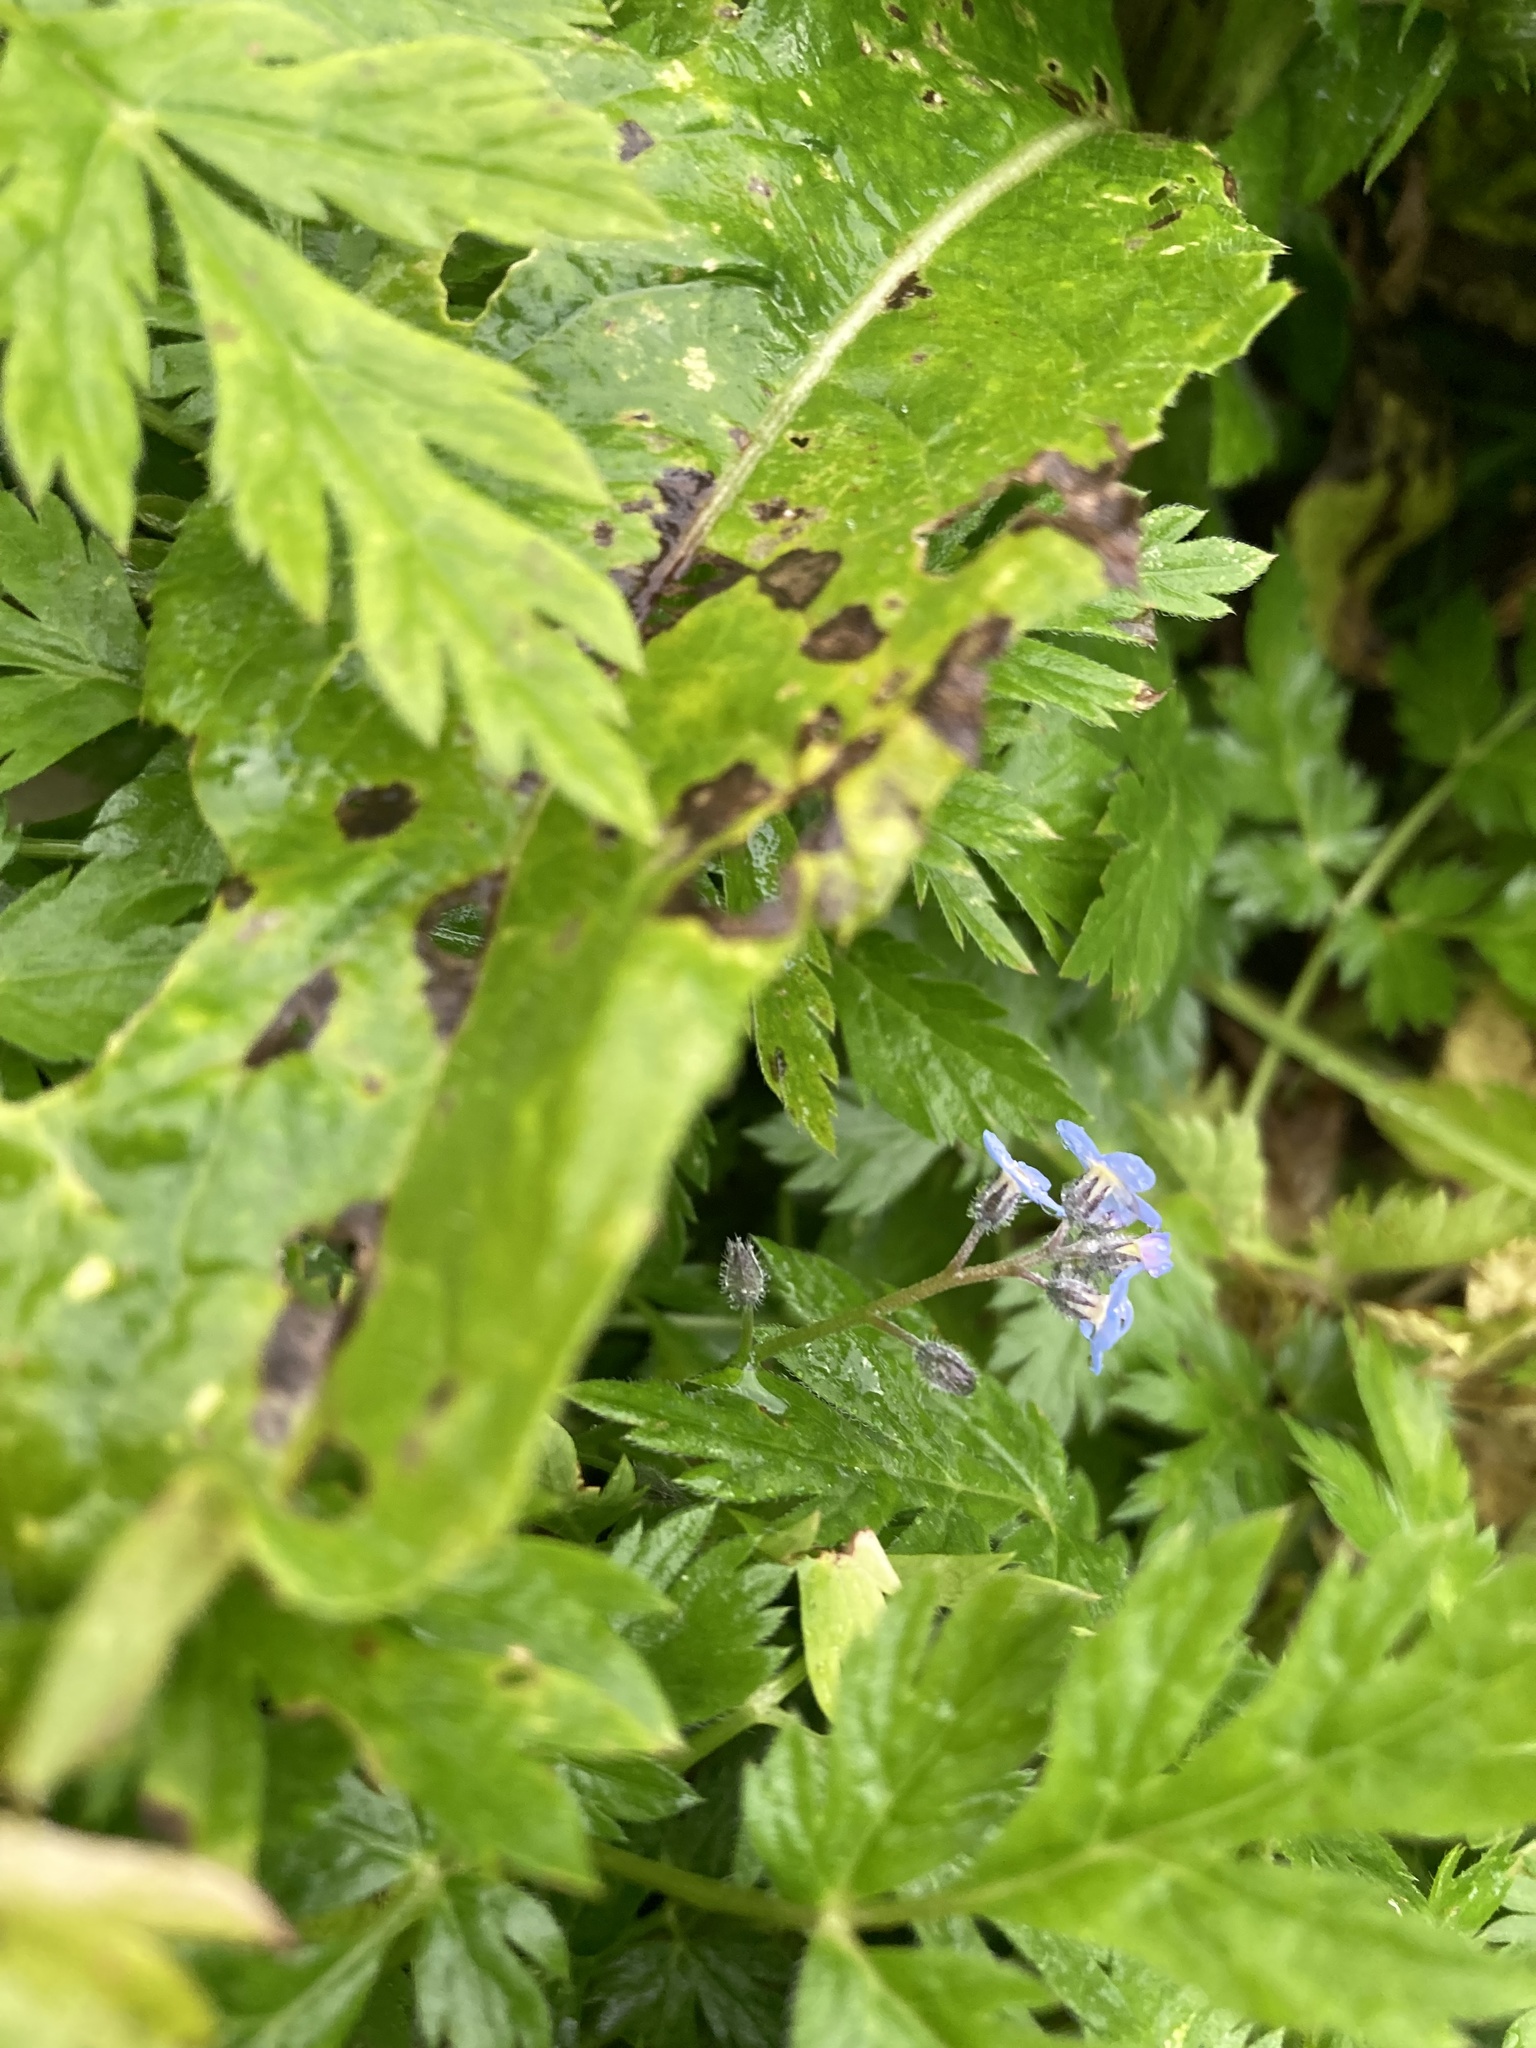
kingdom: Plantae
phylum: Tracheophyta
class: Magnoliopsida
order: Boraginales
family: Boraginaceae
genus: Myosotis
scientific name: Myosotis alpestris
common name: Alpine forget-me-not
